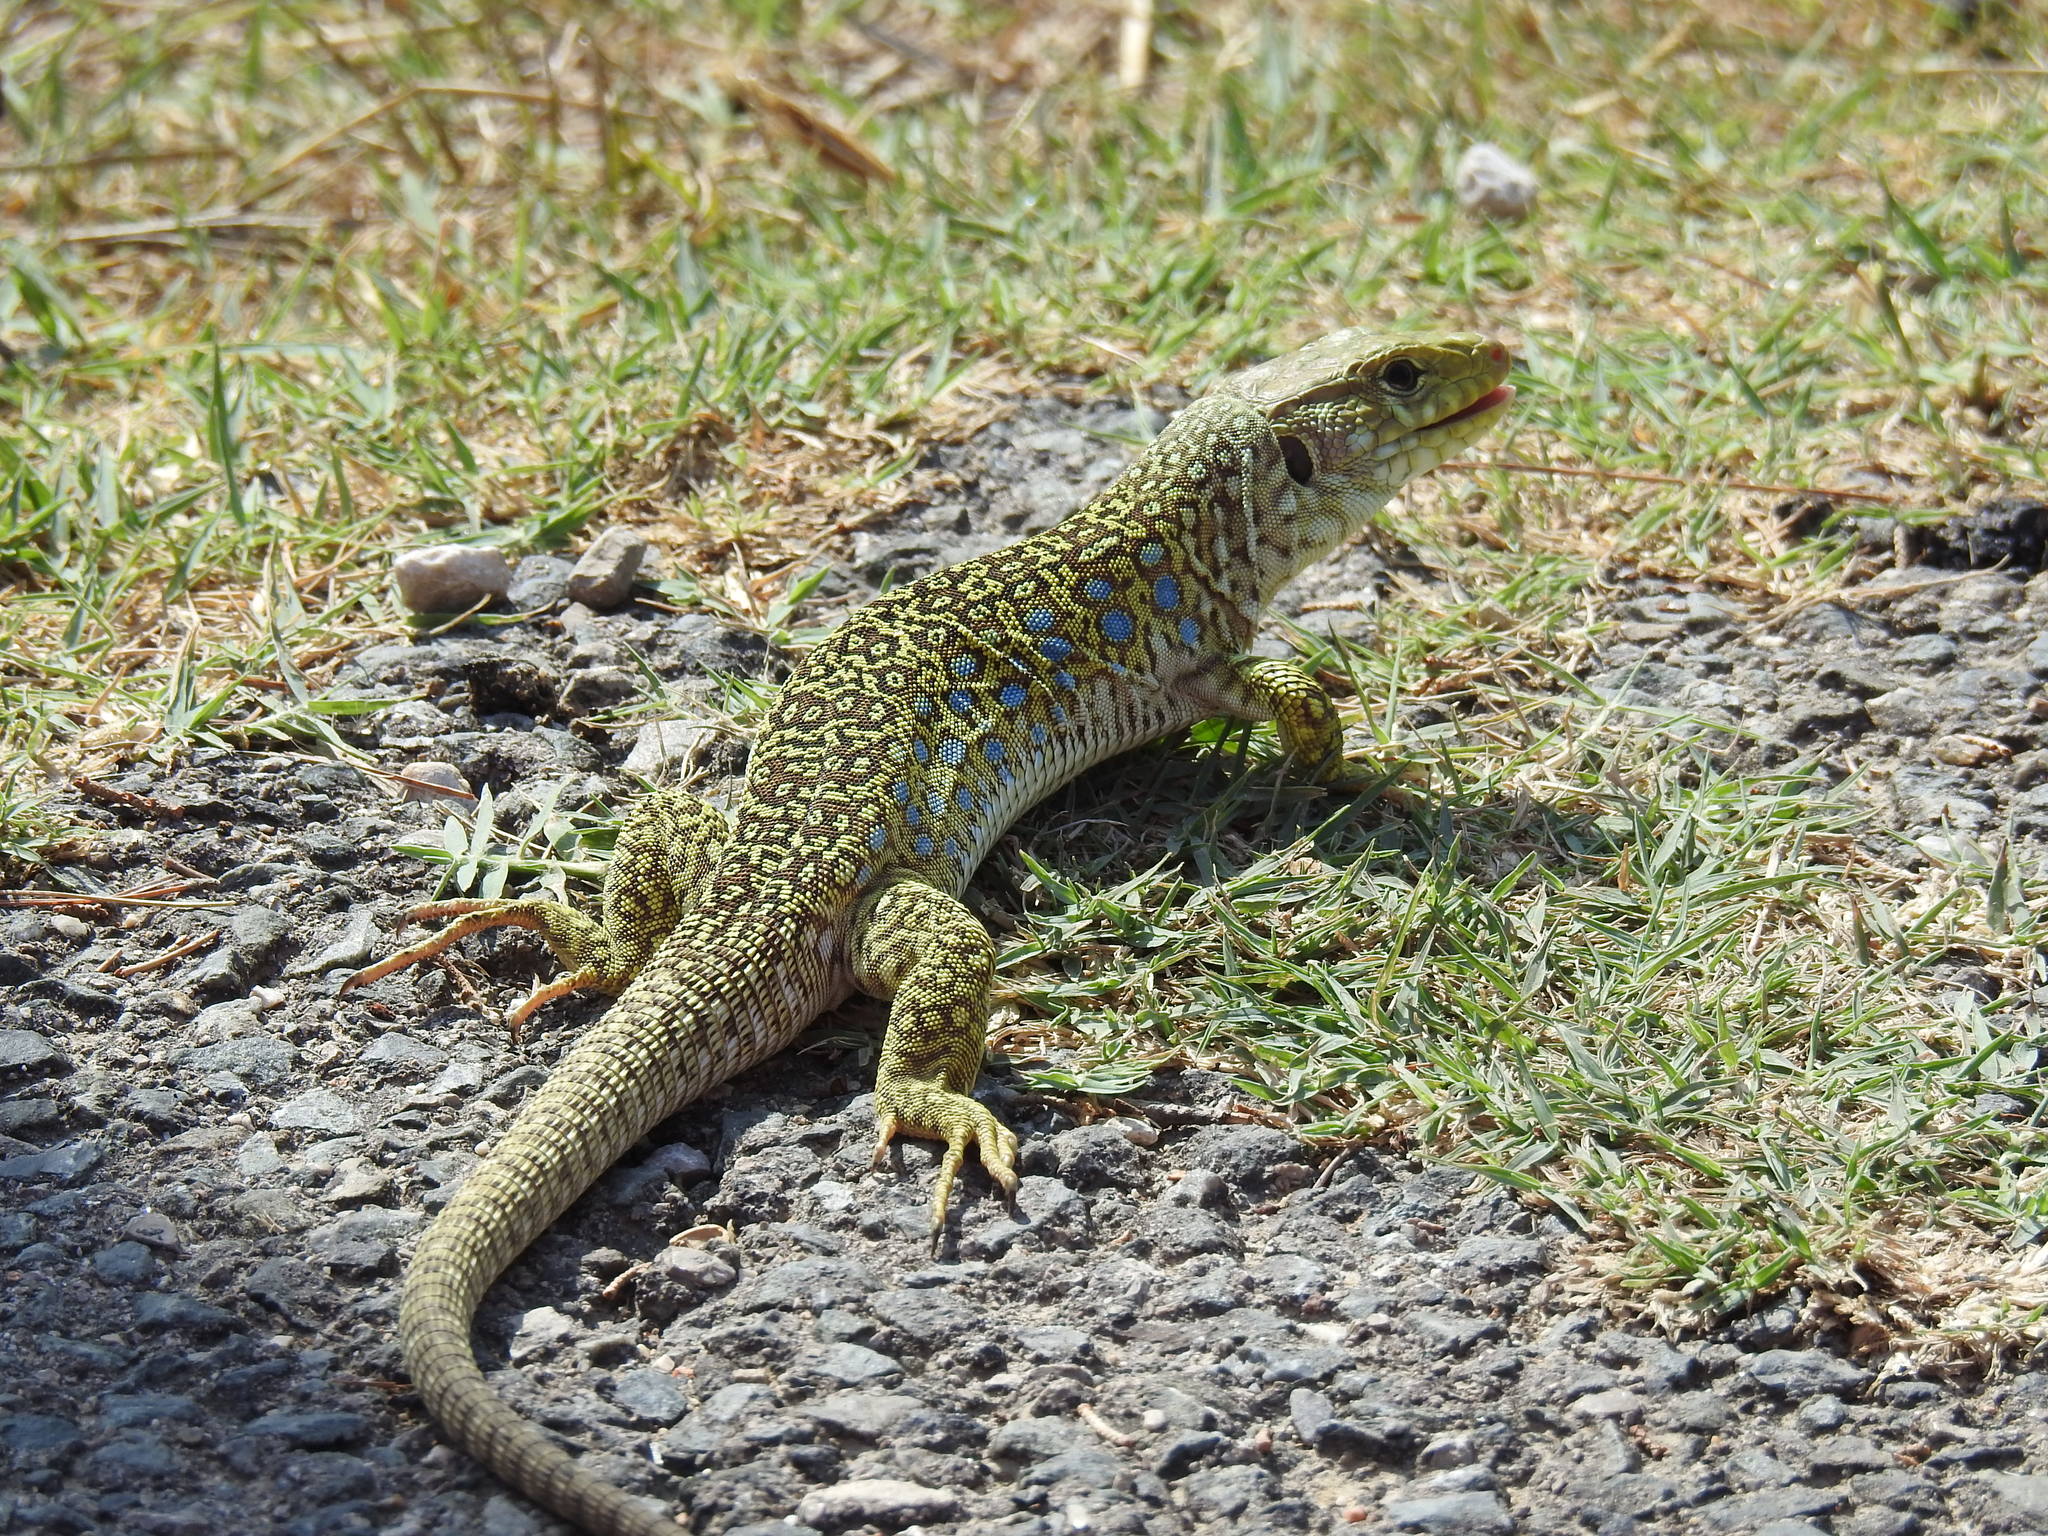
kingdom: Animalia
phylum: Chordata
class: Squamata
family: Lacertidae
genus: Timon
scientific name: Timon lepidus
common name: Ocellated lizard
